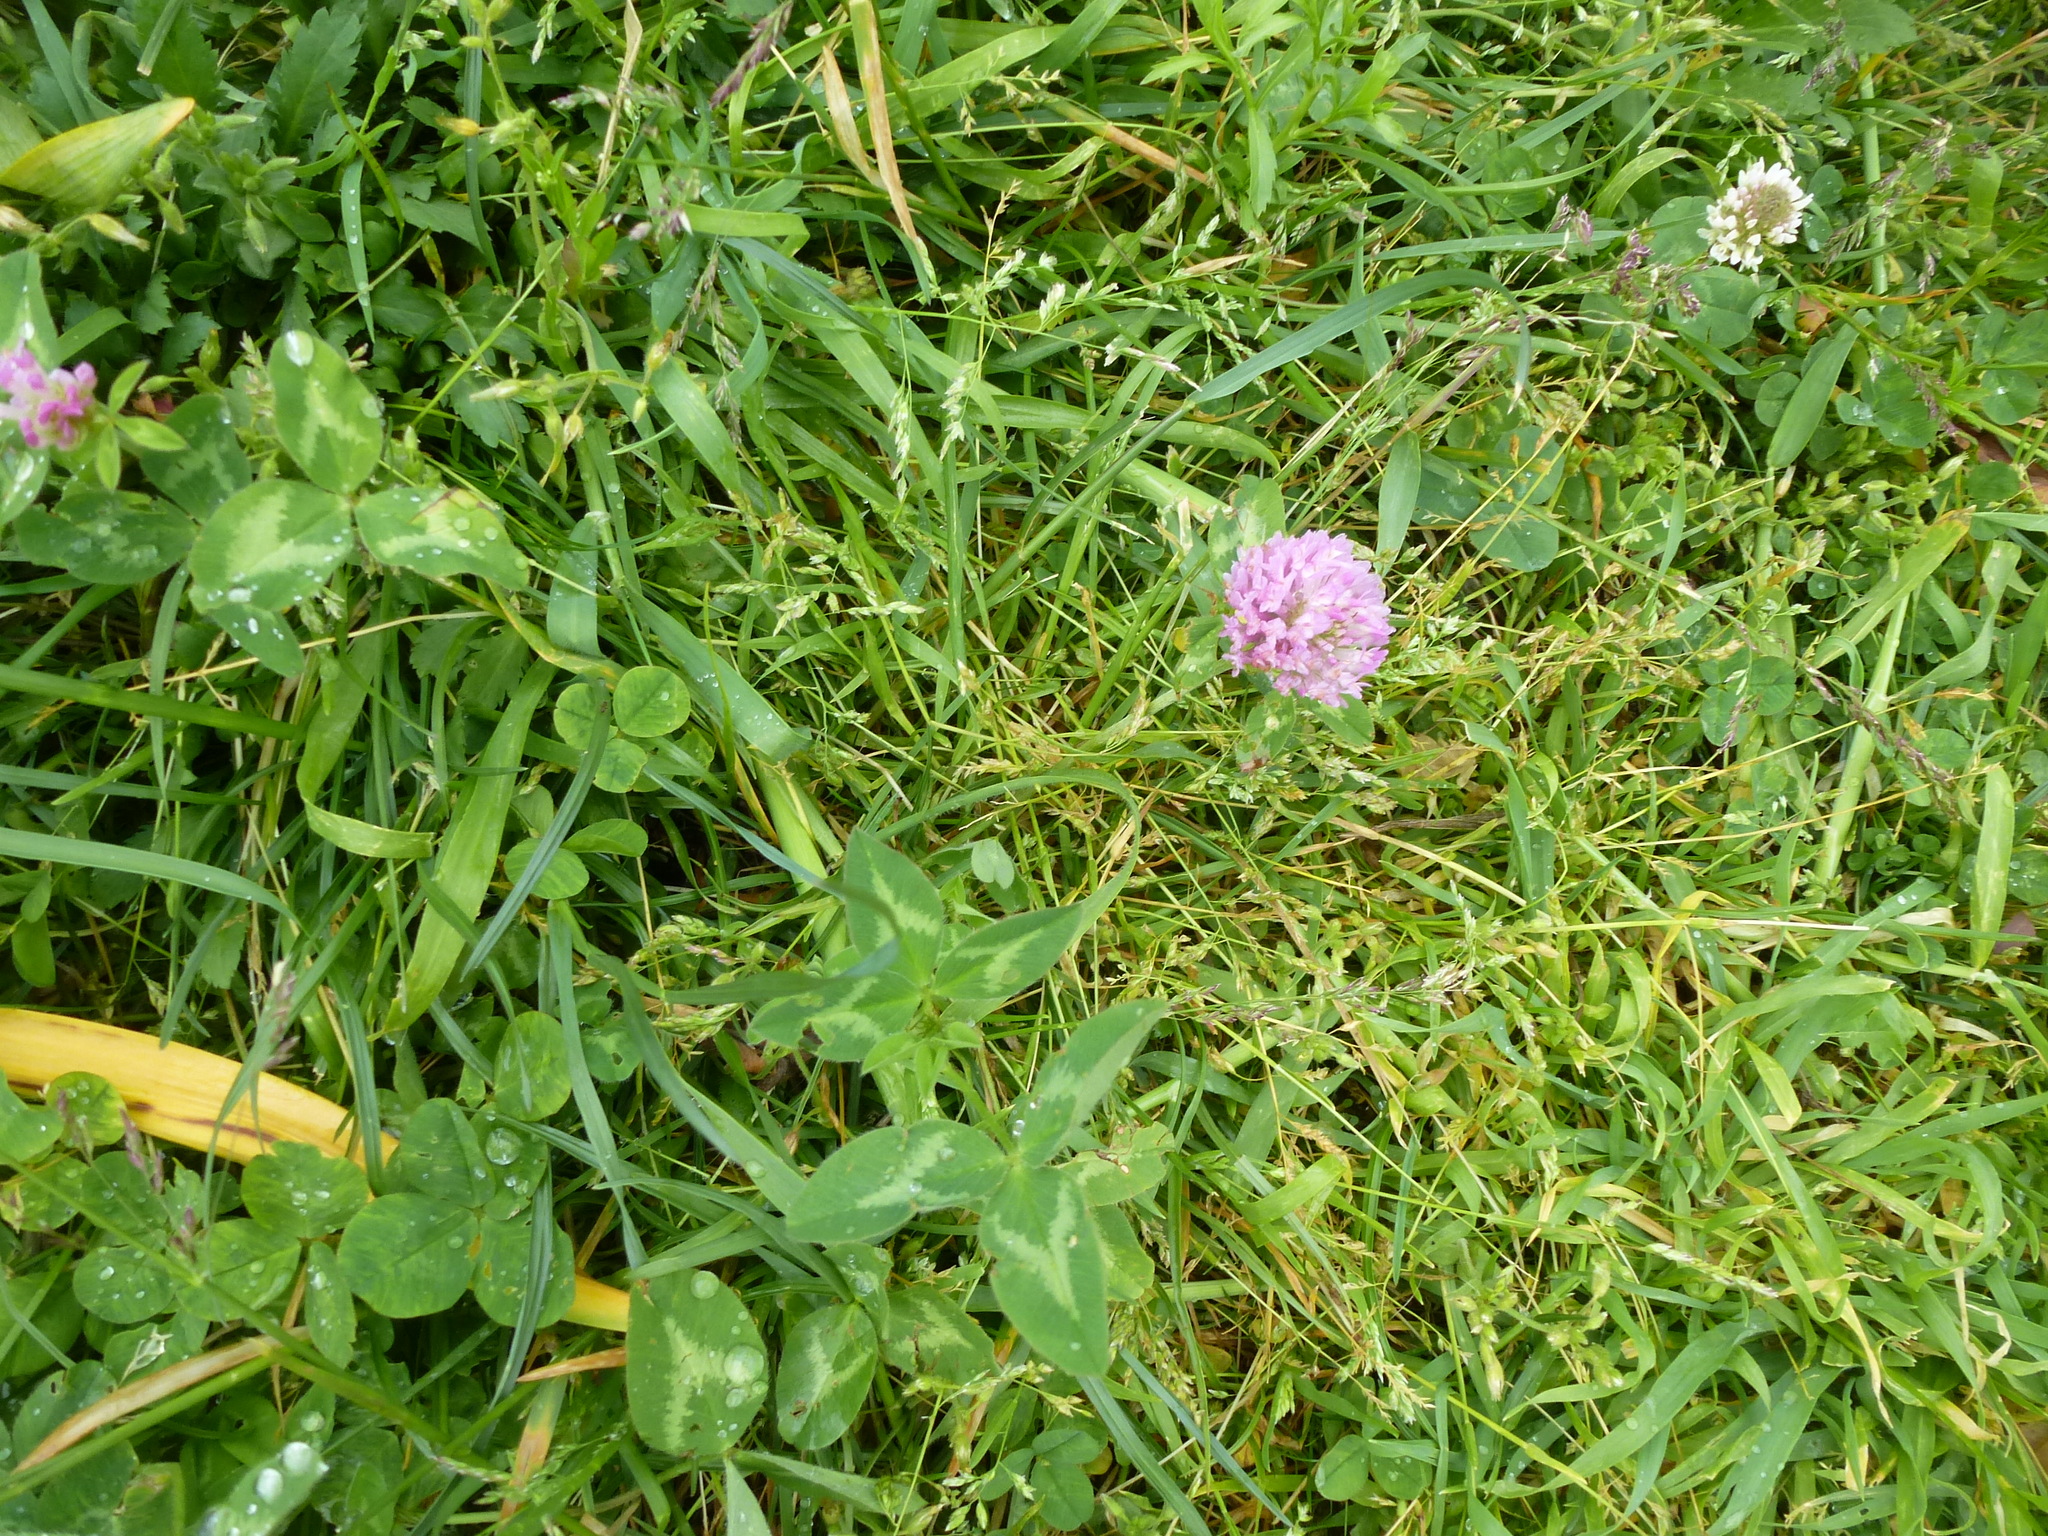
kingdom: Plantae
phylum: Tracheophyta
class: Magnoliopsida
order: Fabales
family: Fabaceae
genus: Trifolium
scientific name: Trifolium pratense
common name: Red clover
